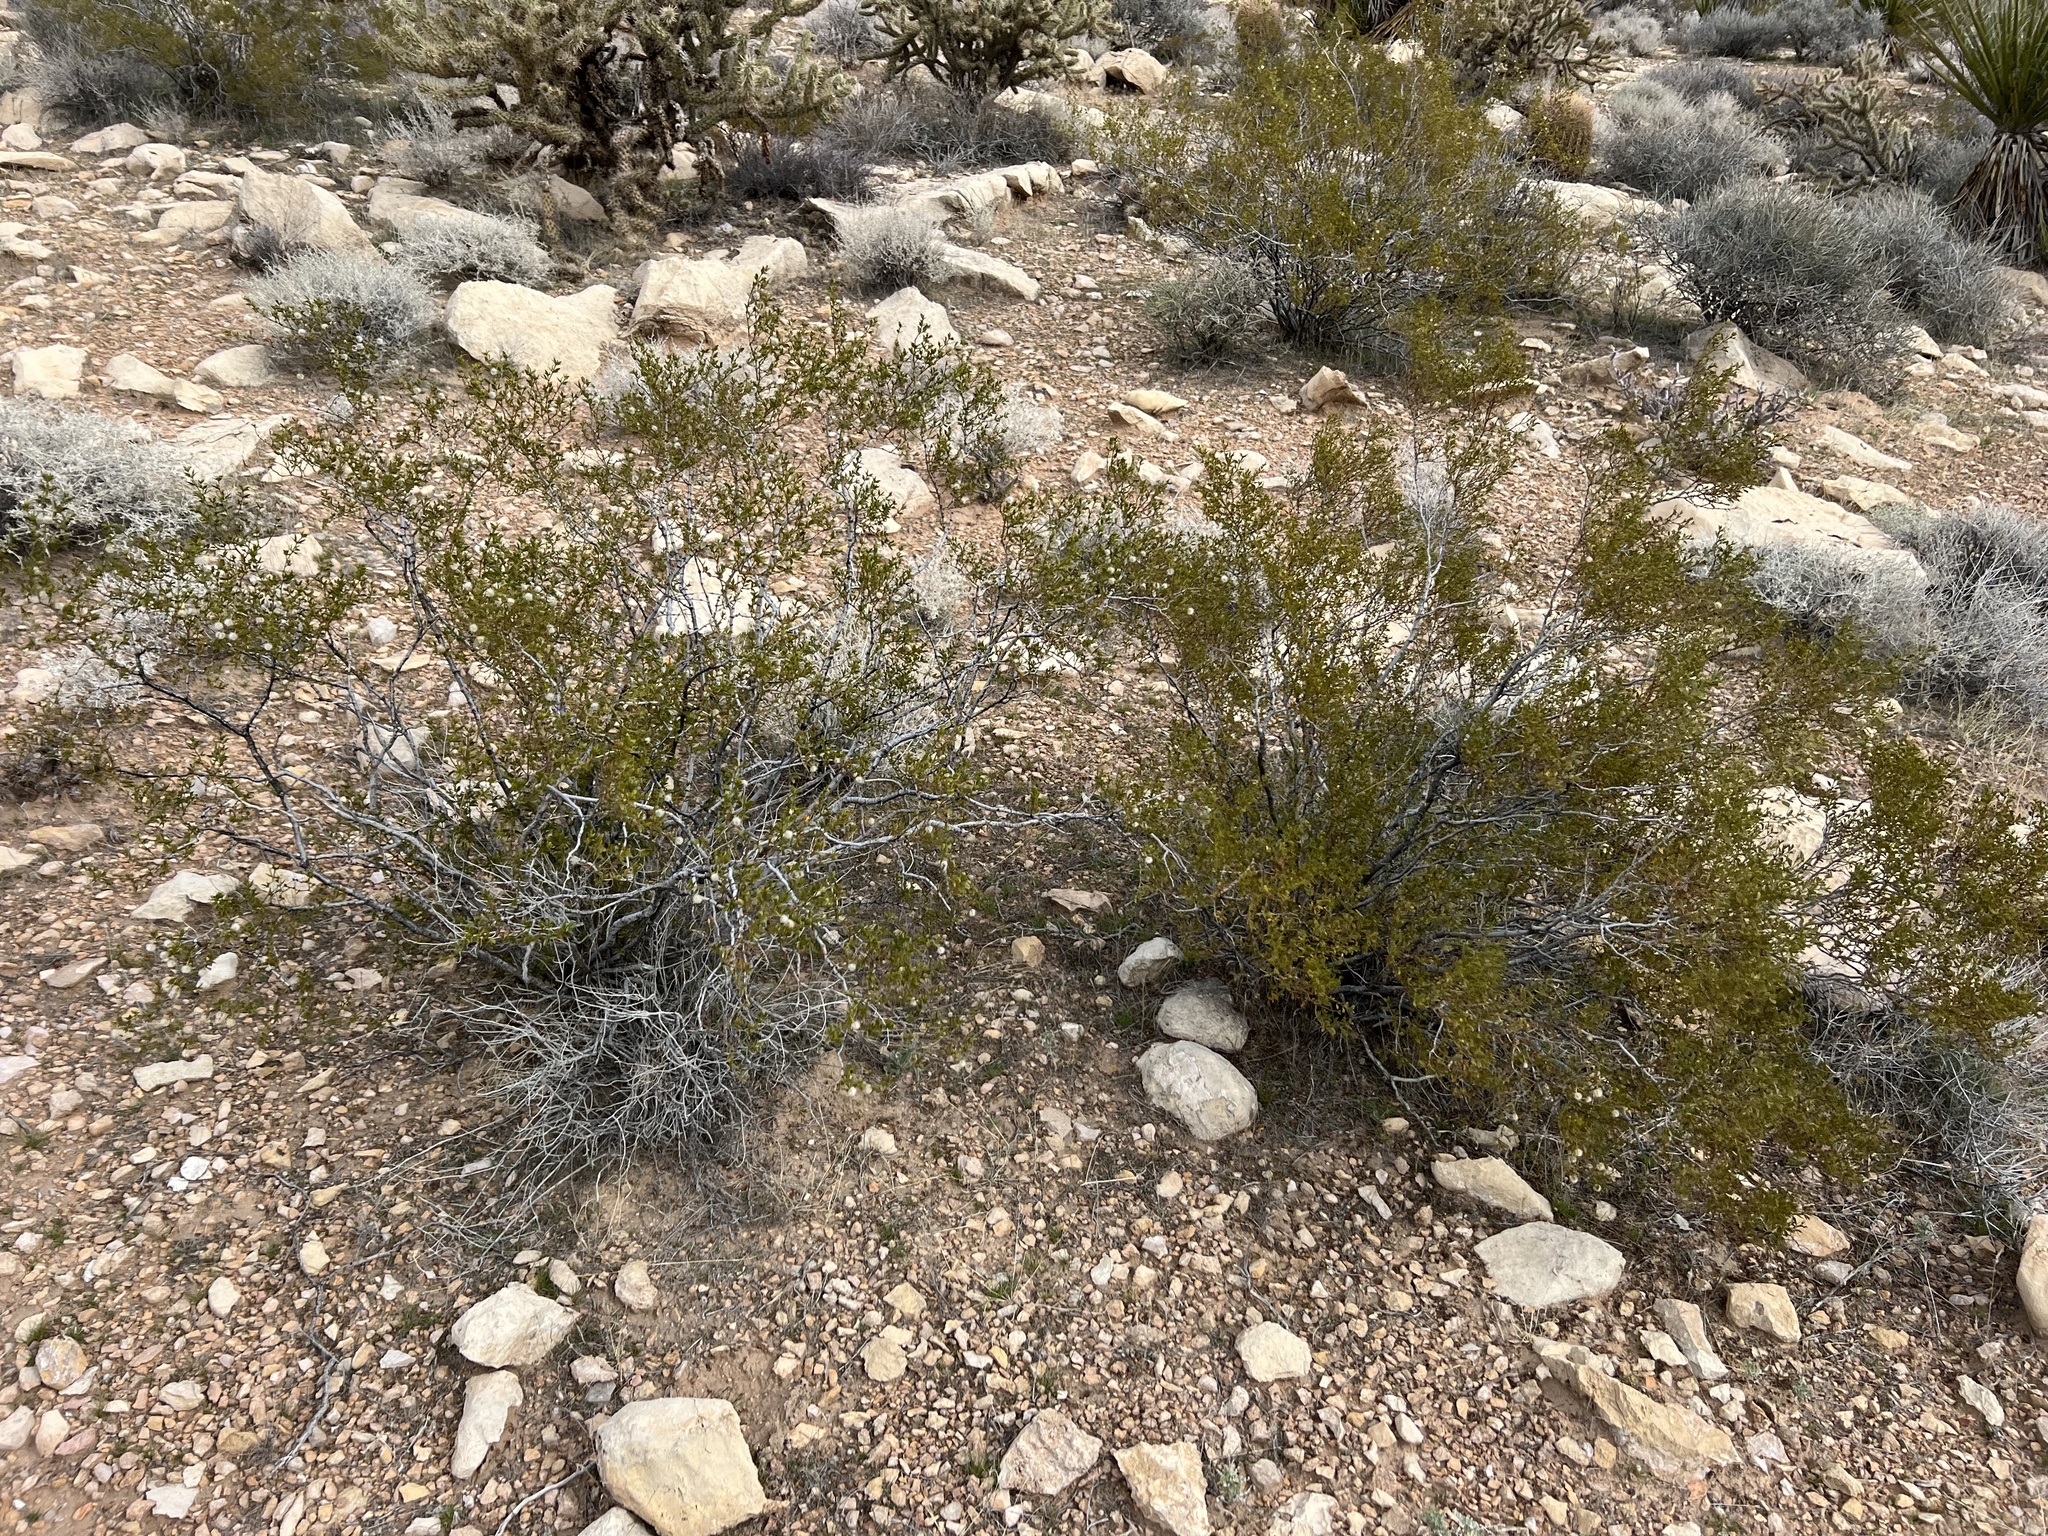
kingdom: Plantae
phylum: Tracheophyta
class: Magnoliopsida
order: Zygophyllales
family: Zygophyllaceae
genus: Larrea
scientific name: Larrea tridentata
